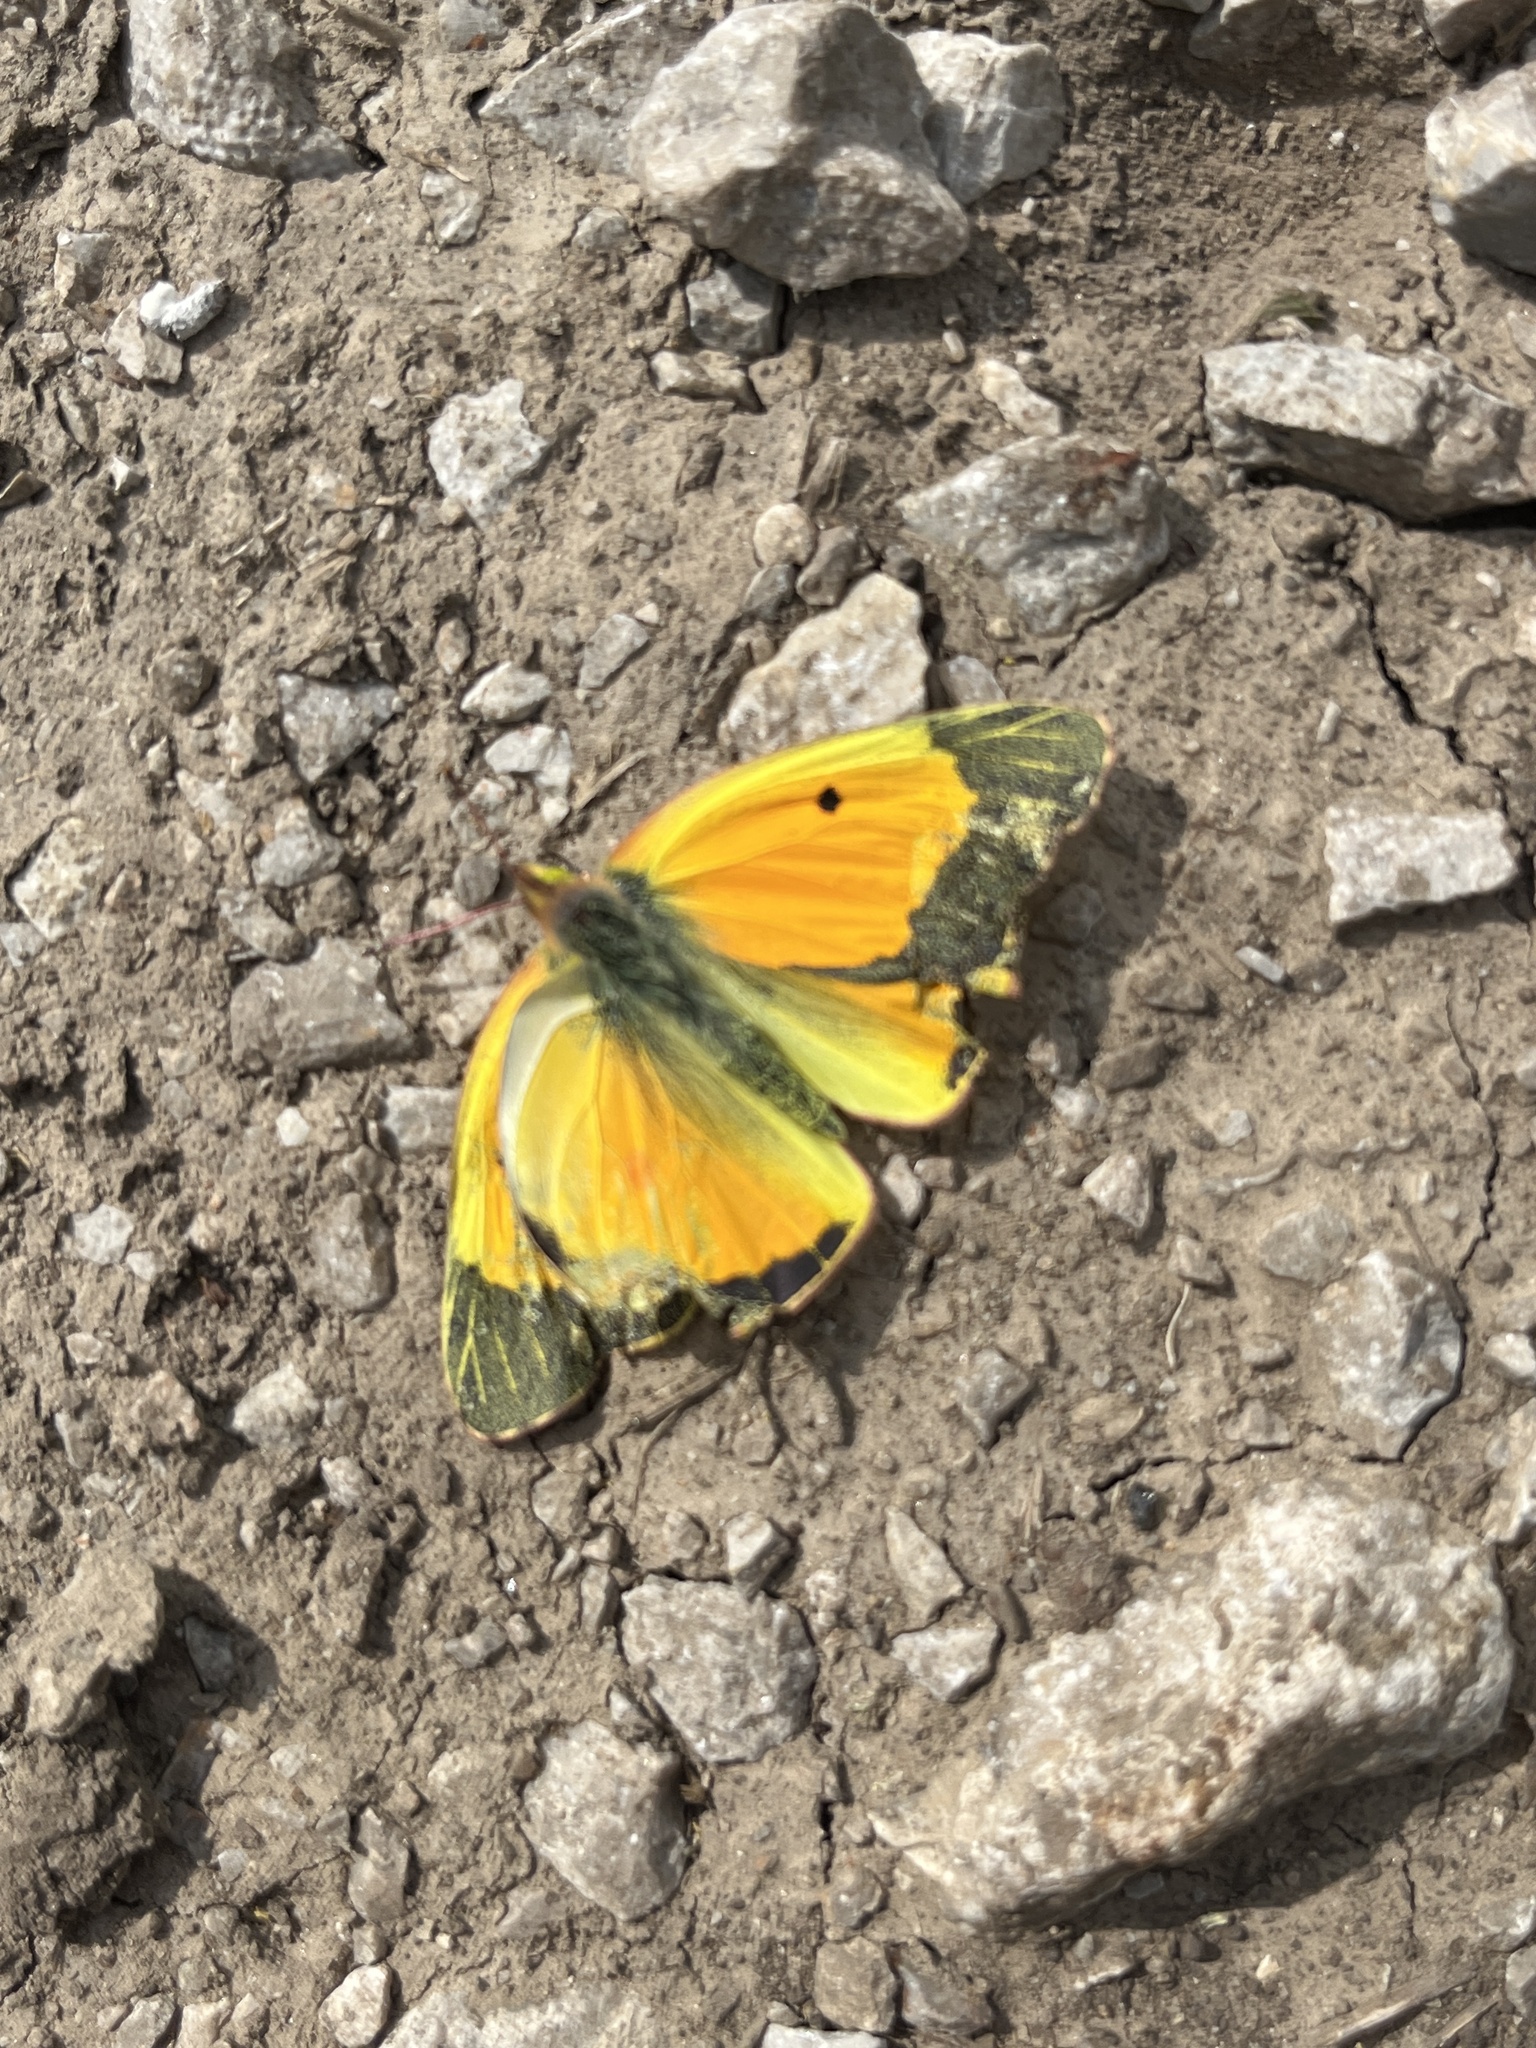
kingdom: Animalia
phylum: Arthropoda
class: Insecta
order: Lepidoptera
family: Pieridae
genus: Colias
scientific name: Colias eurytheme
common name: Alfalfa butterfly
